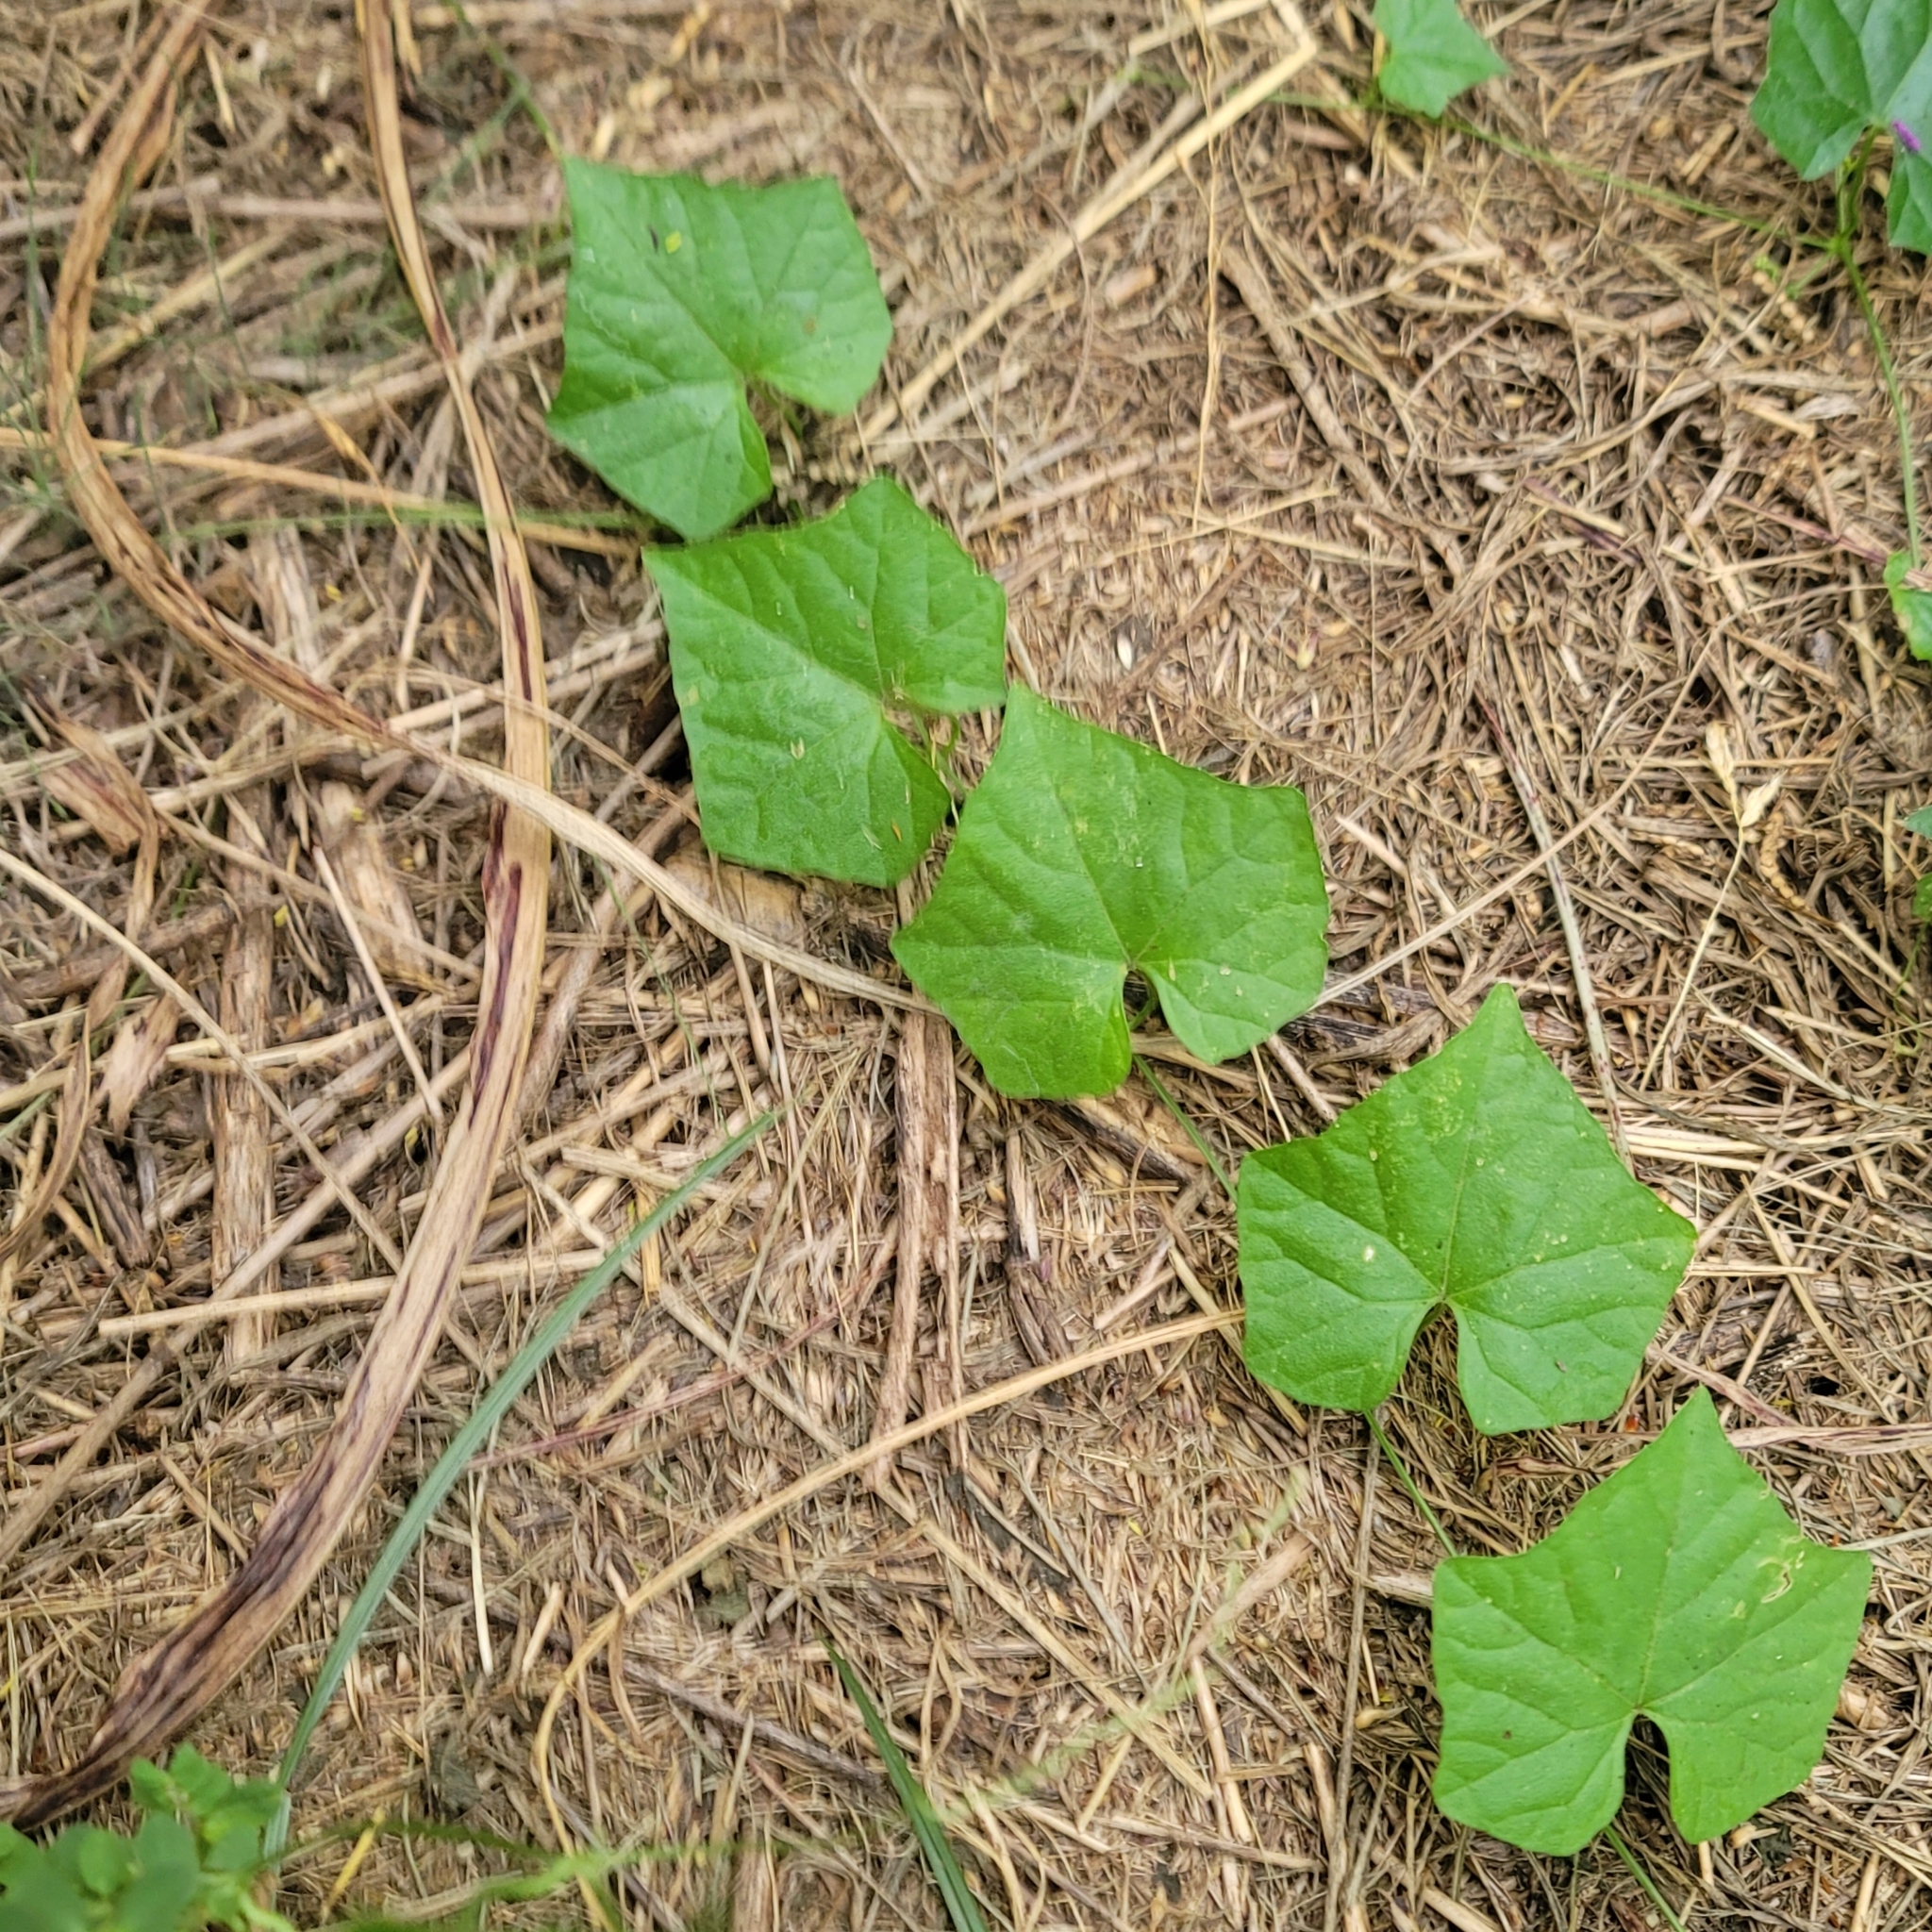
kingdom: Plantae
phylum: Tracheophyta
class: Magnoliopsida
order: Cucurbitales
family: Cucurbitaceae
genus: Melothria
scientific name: Melothria pendula
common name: Creeping-cucumber
